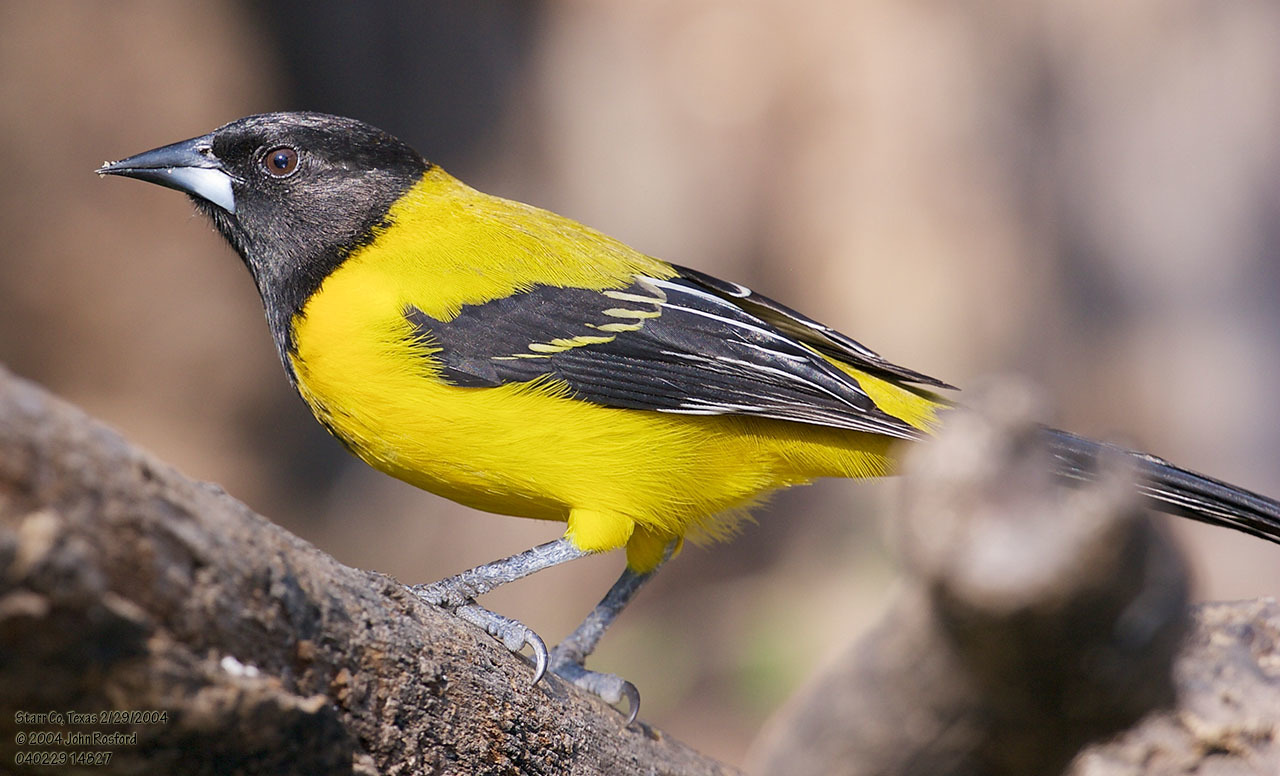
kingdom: Animalia
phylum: Chordata
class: Aves
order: Passeriformes
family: Icteridae
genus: Icterus
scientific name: Icterus graduacauda
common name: Audubon's oriole
